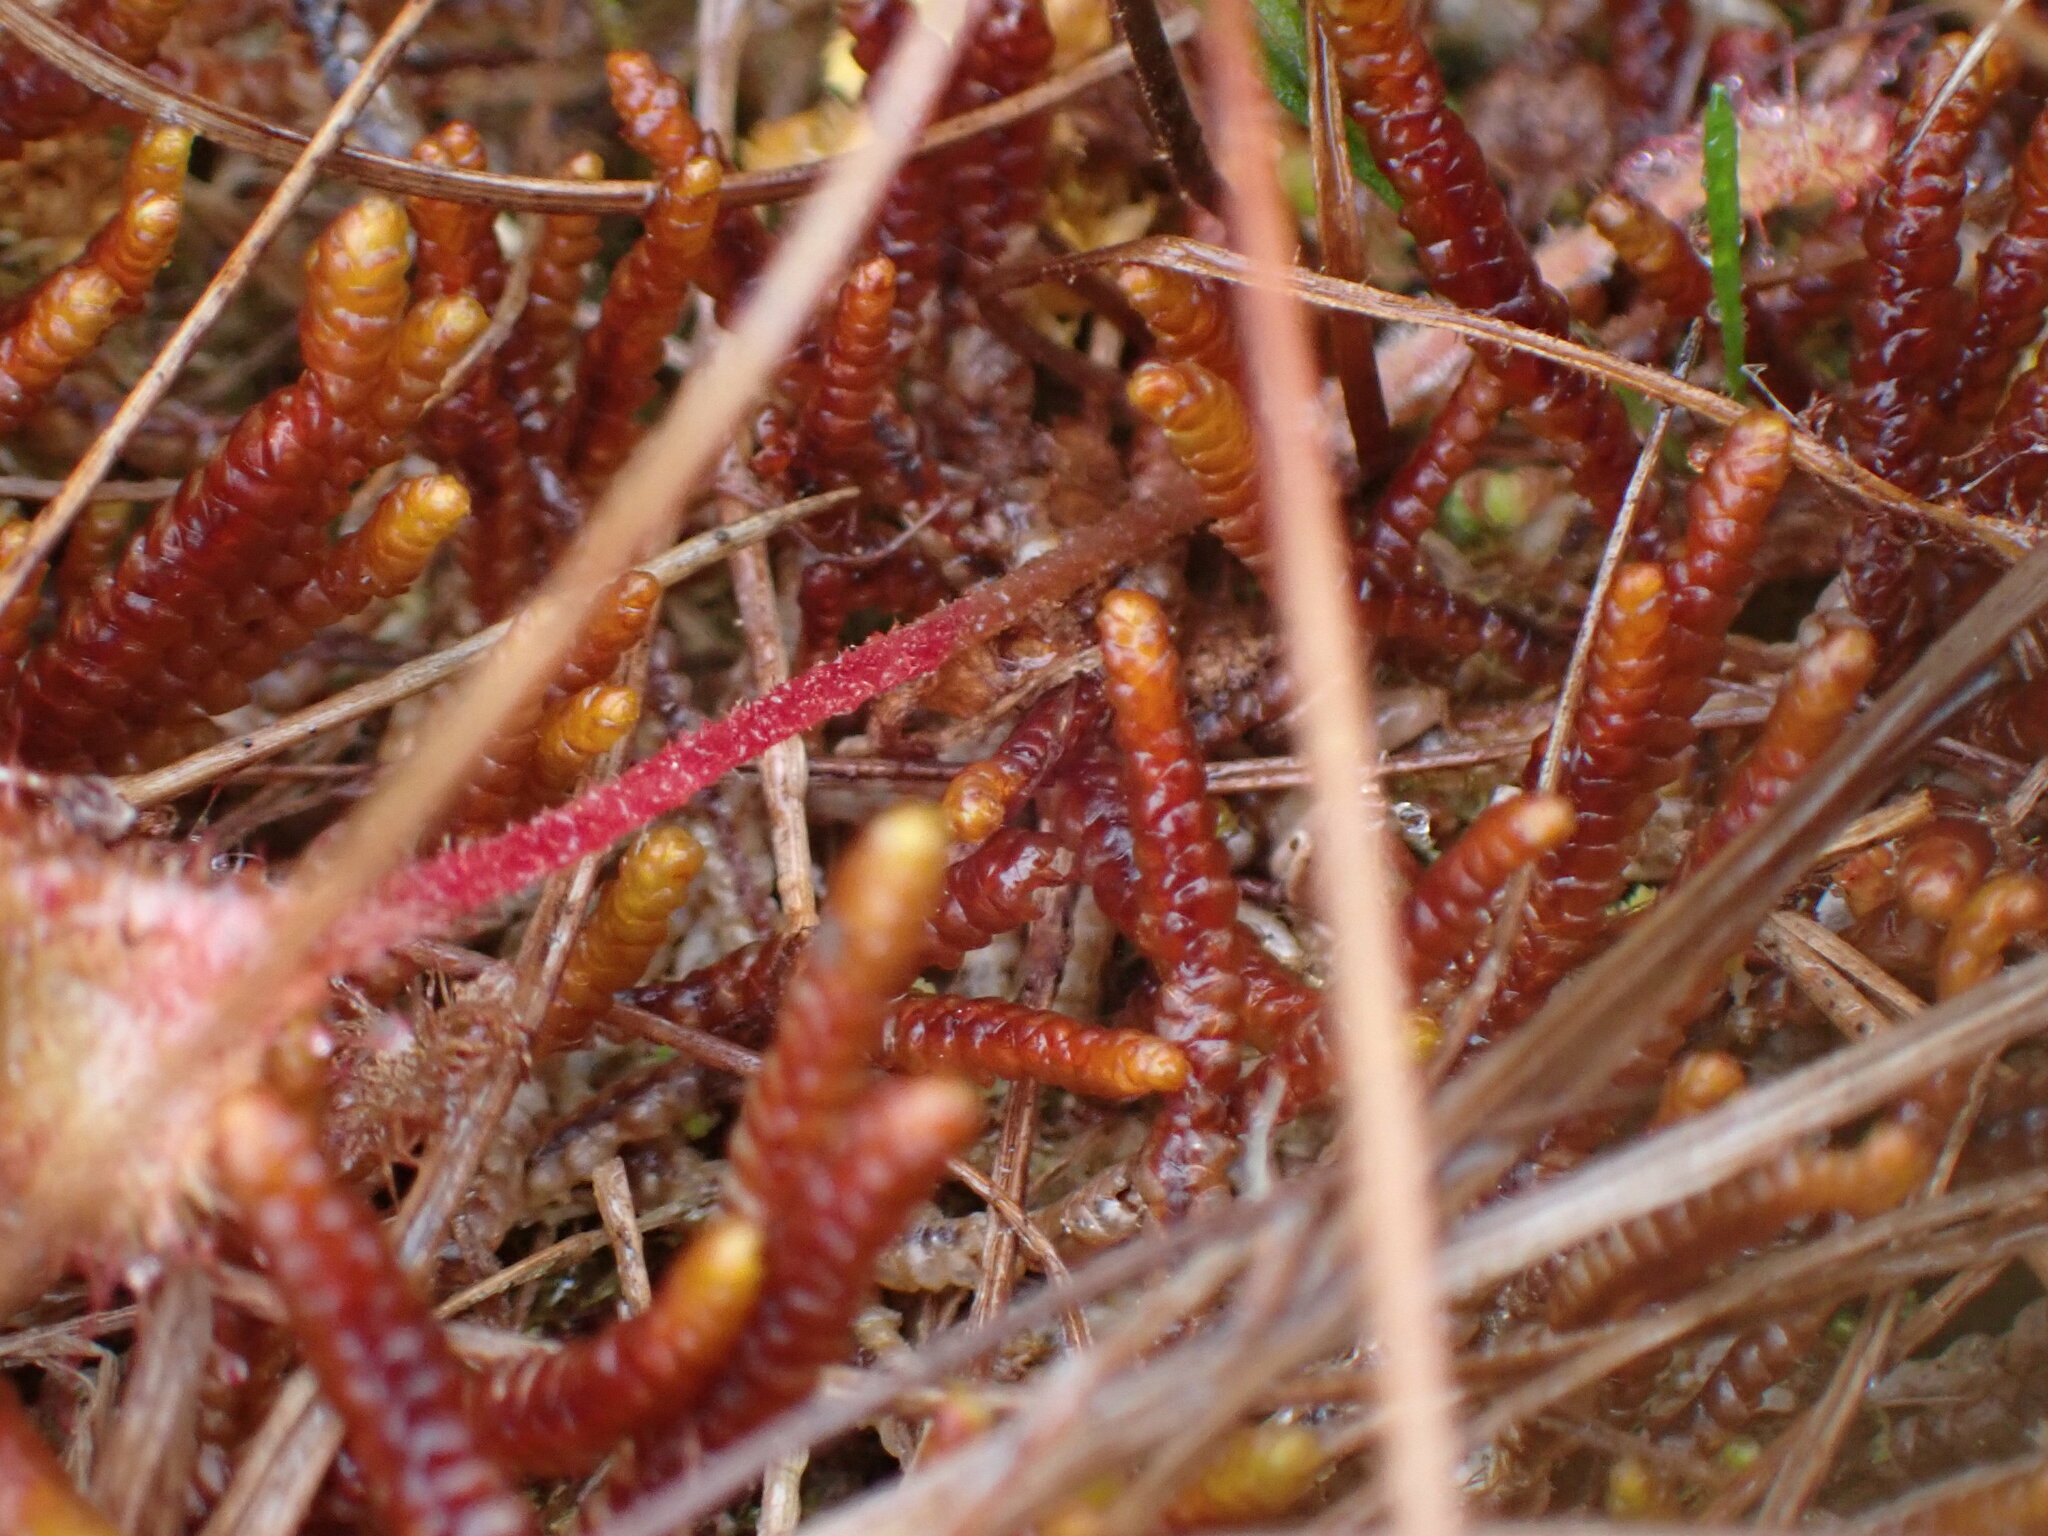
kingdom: Plantae
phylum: Marchantiophyta
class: Jungermanniopsida
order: Pleuroziales
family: Pleuroziaceae
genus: Pleurozia
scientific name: Pleurozia purpurea
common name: Purple spoonwort
